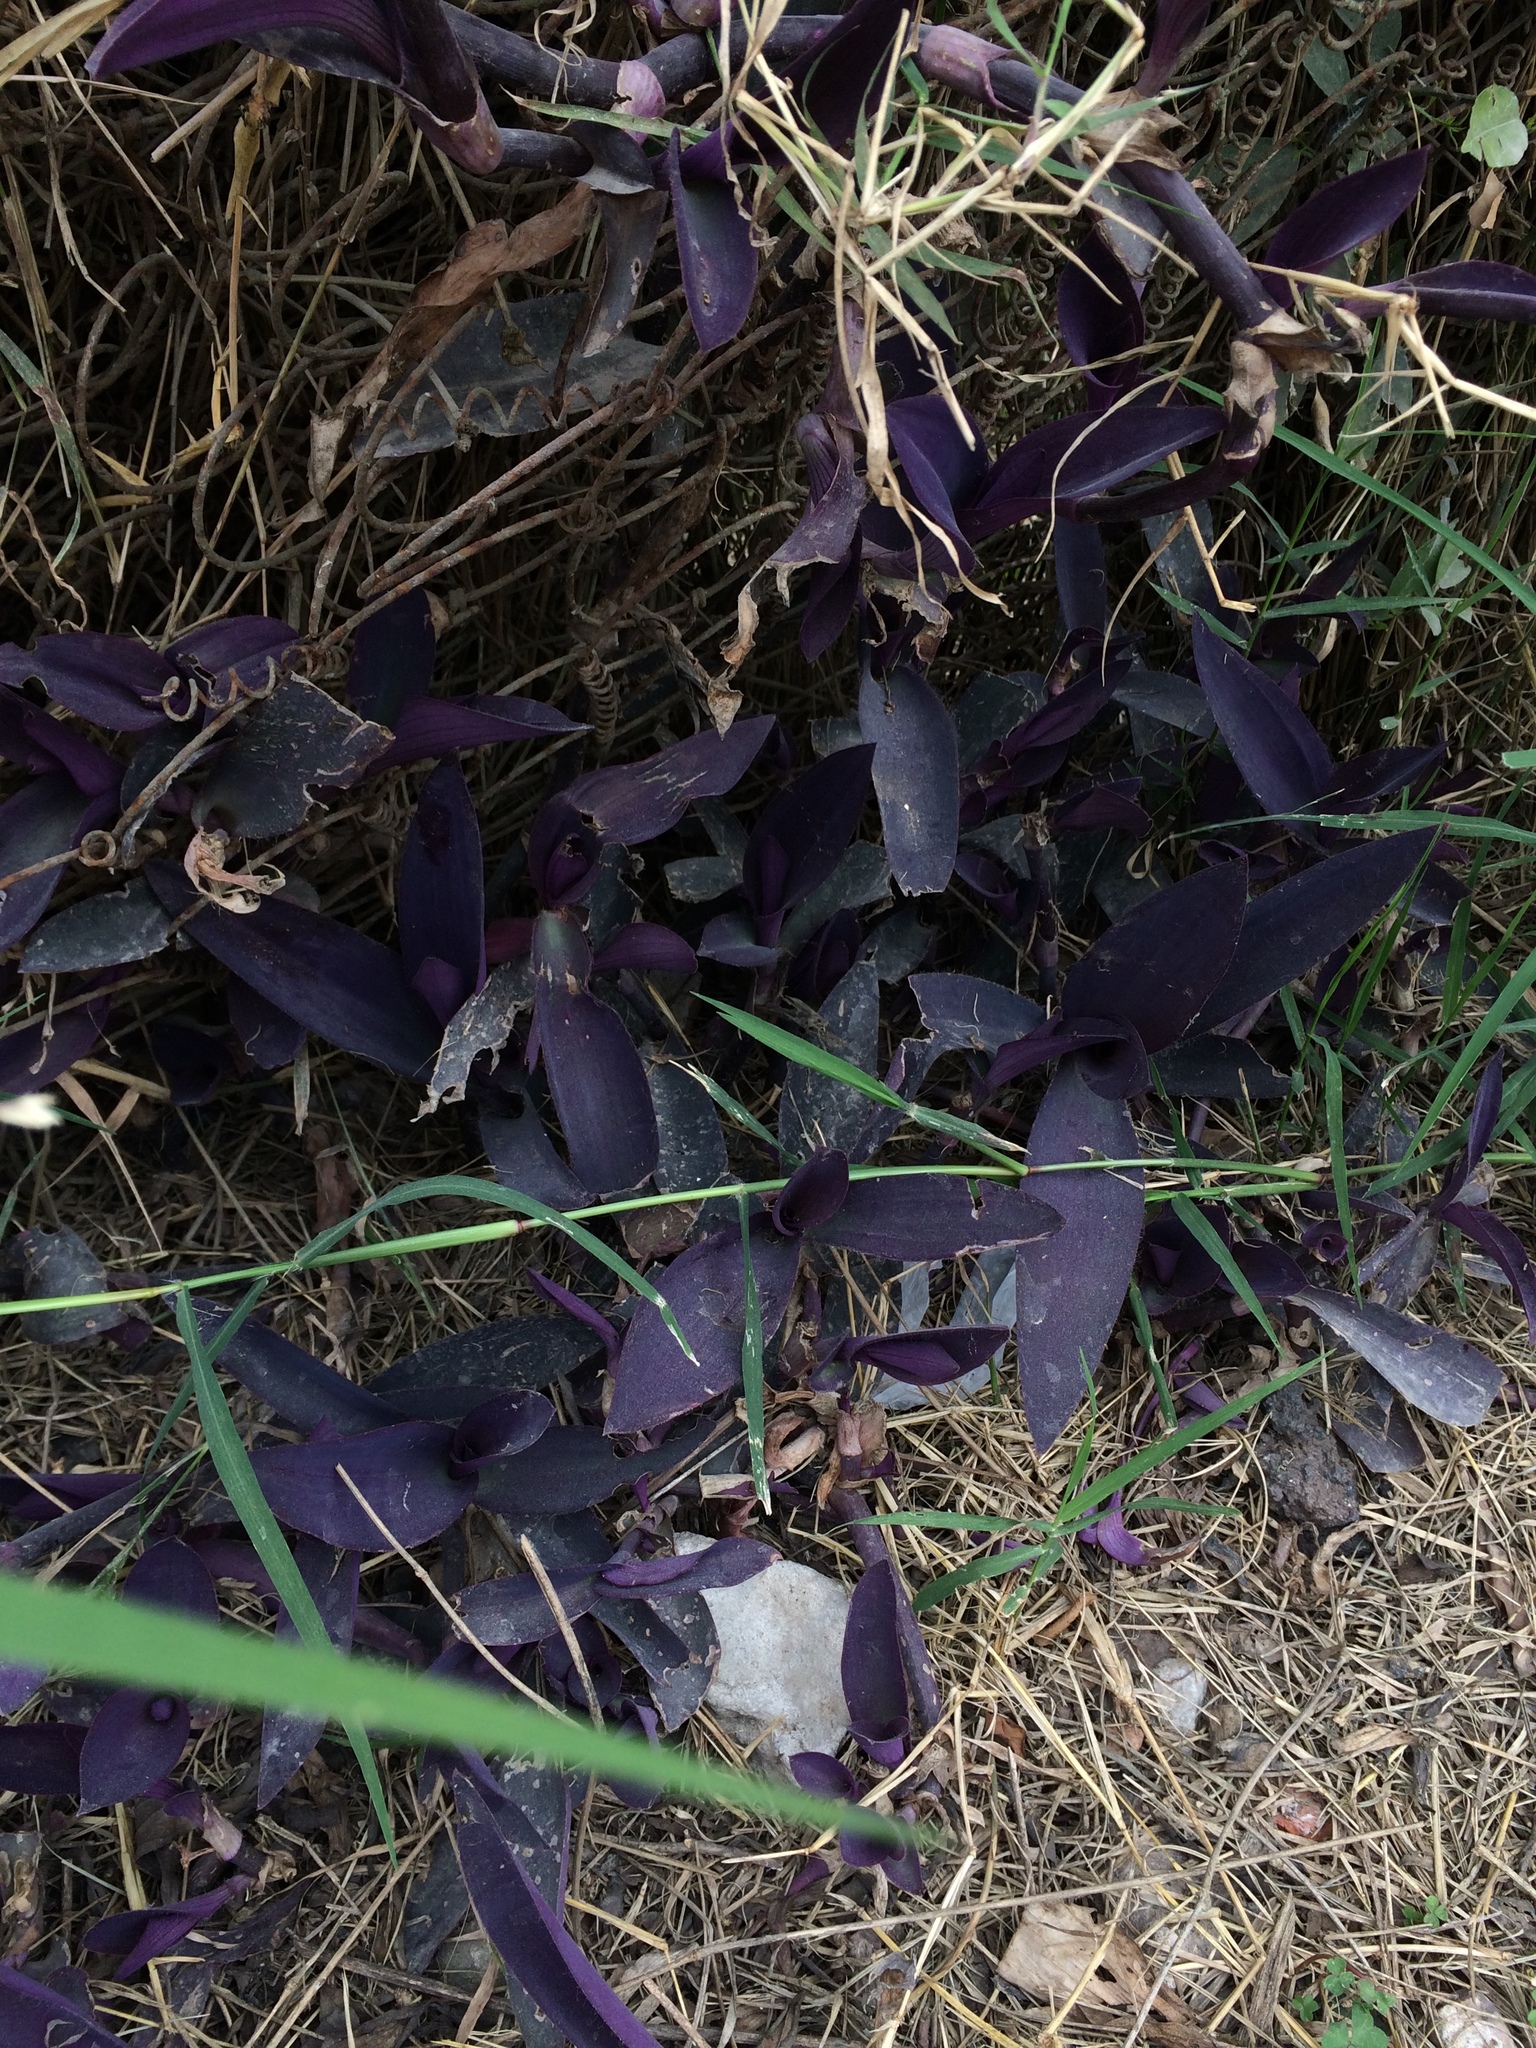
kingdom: Plantae
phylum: Tracheophyta
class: Liliopsida
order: Commelinales
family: Commelinaceae
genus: Tradescantia
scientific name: Tradescantia pallida
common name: Purpleheart
